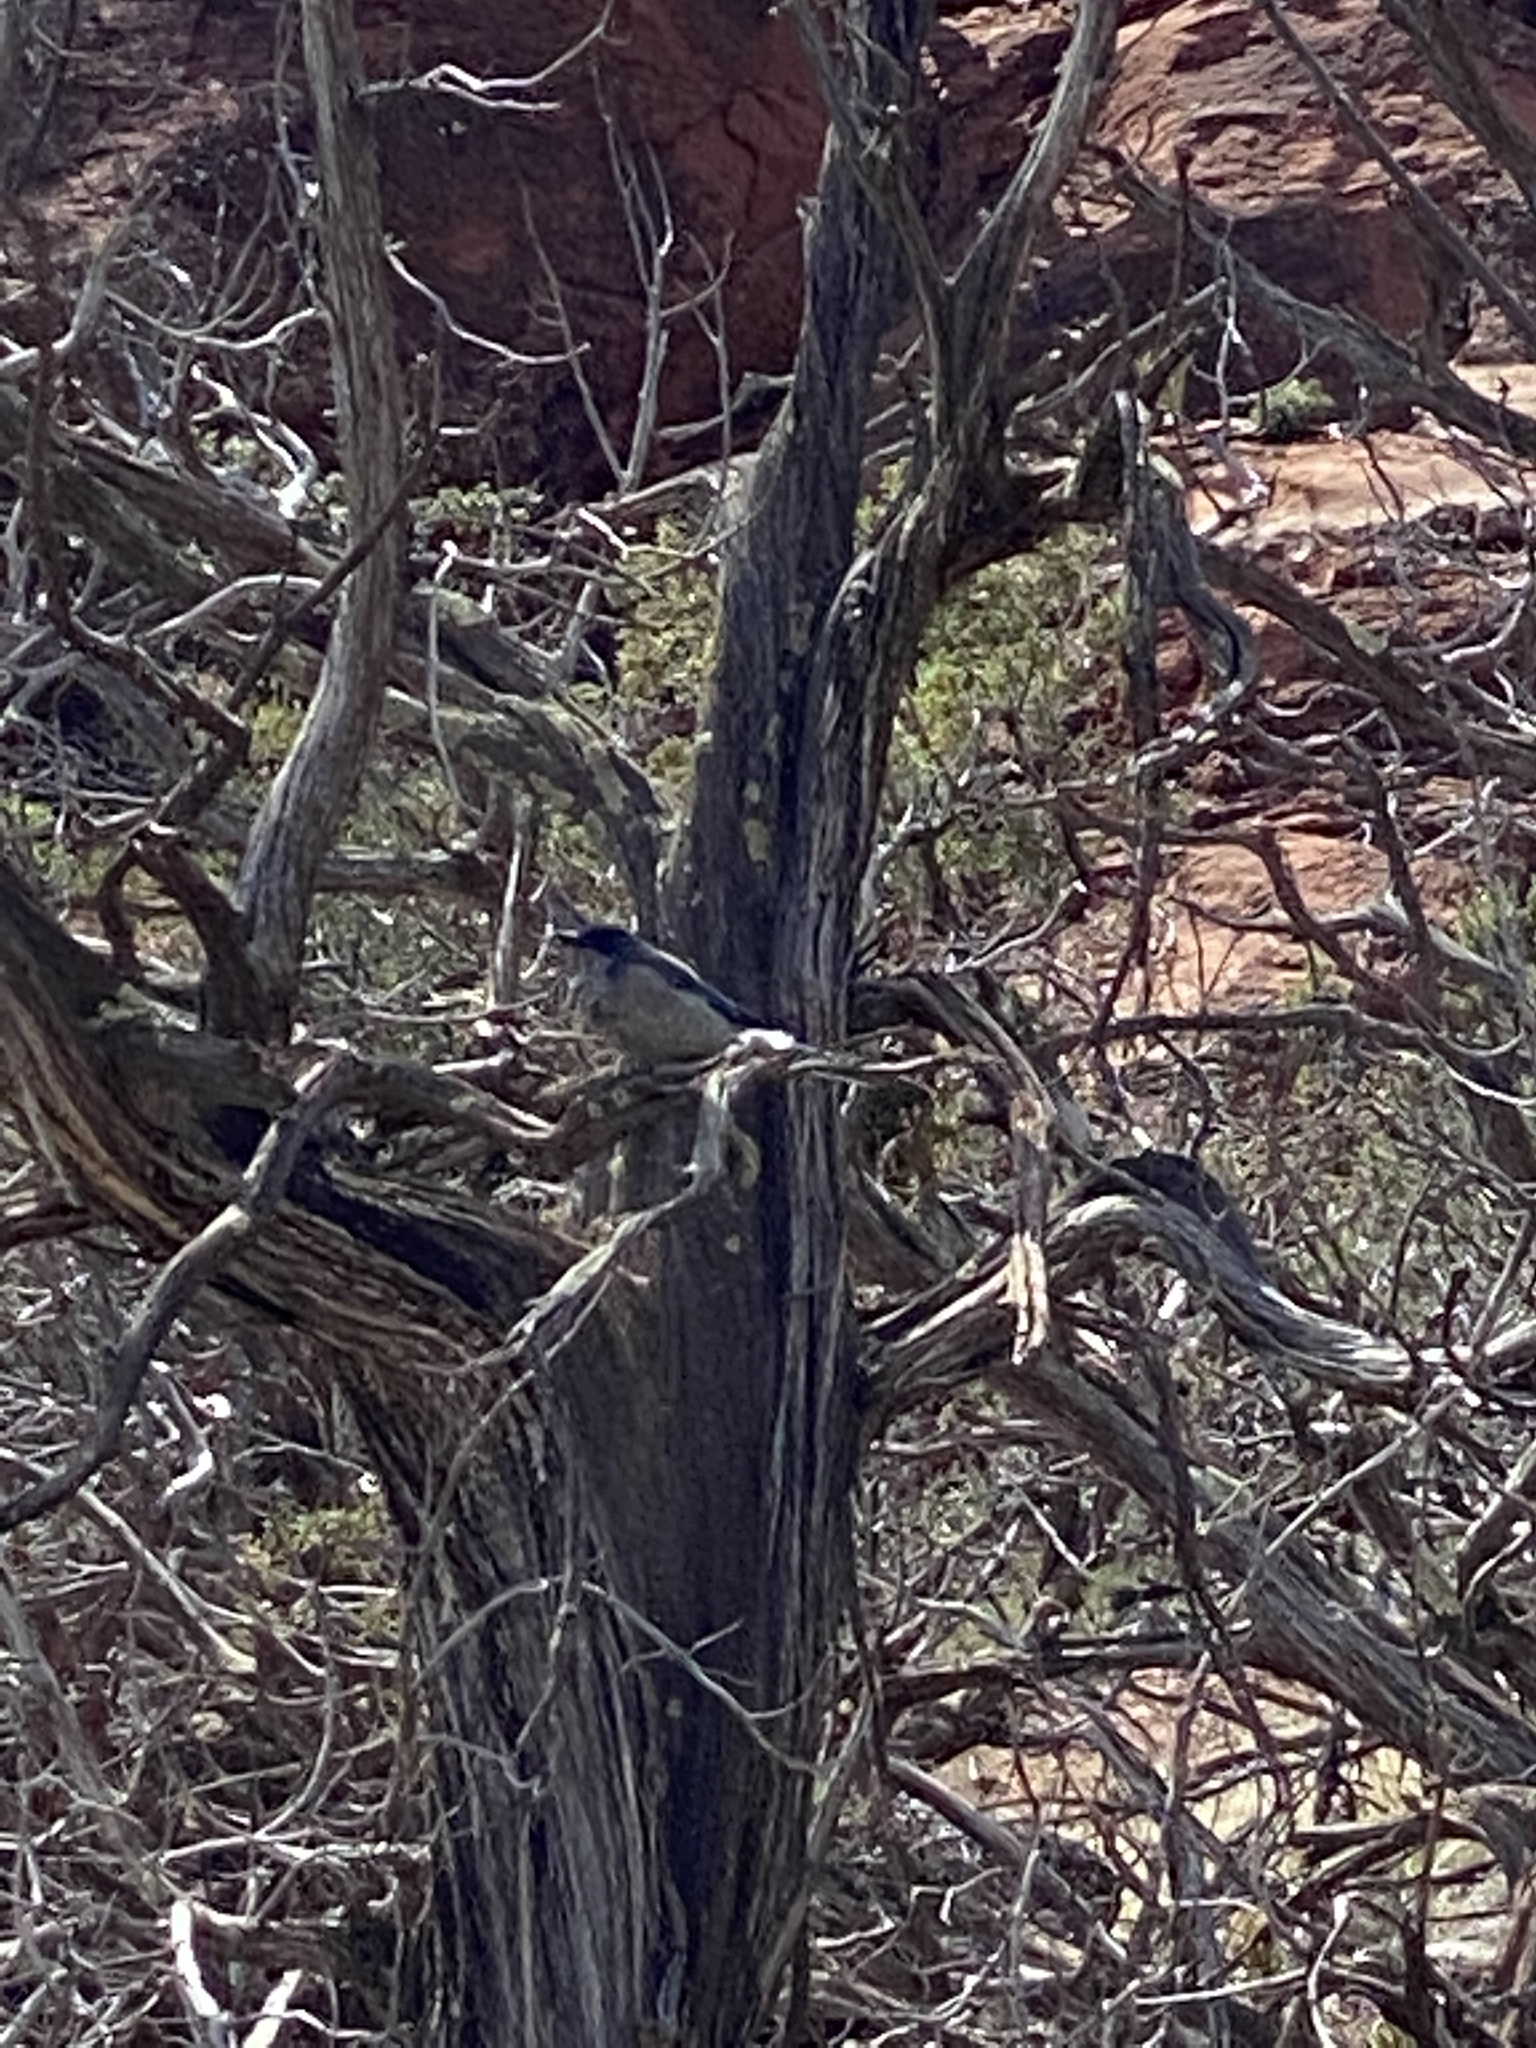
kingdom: Animalia
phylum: Chordata
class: Aves
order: Passeriformes
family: Corvidae
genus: Aphelocoma
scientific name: Aphelocoma woodhouseii
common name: Woodhouse's scrub-jay
